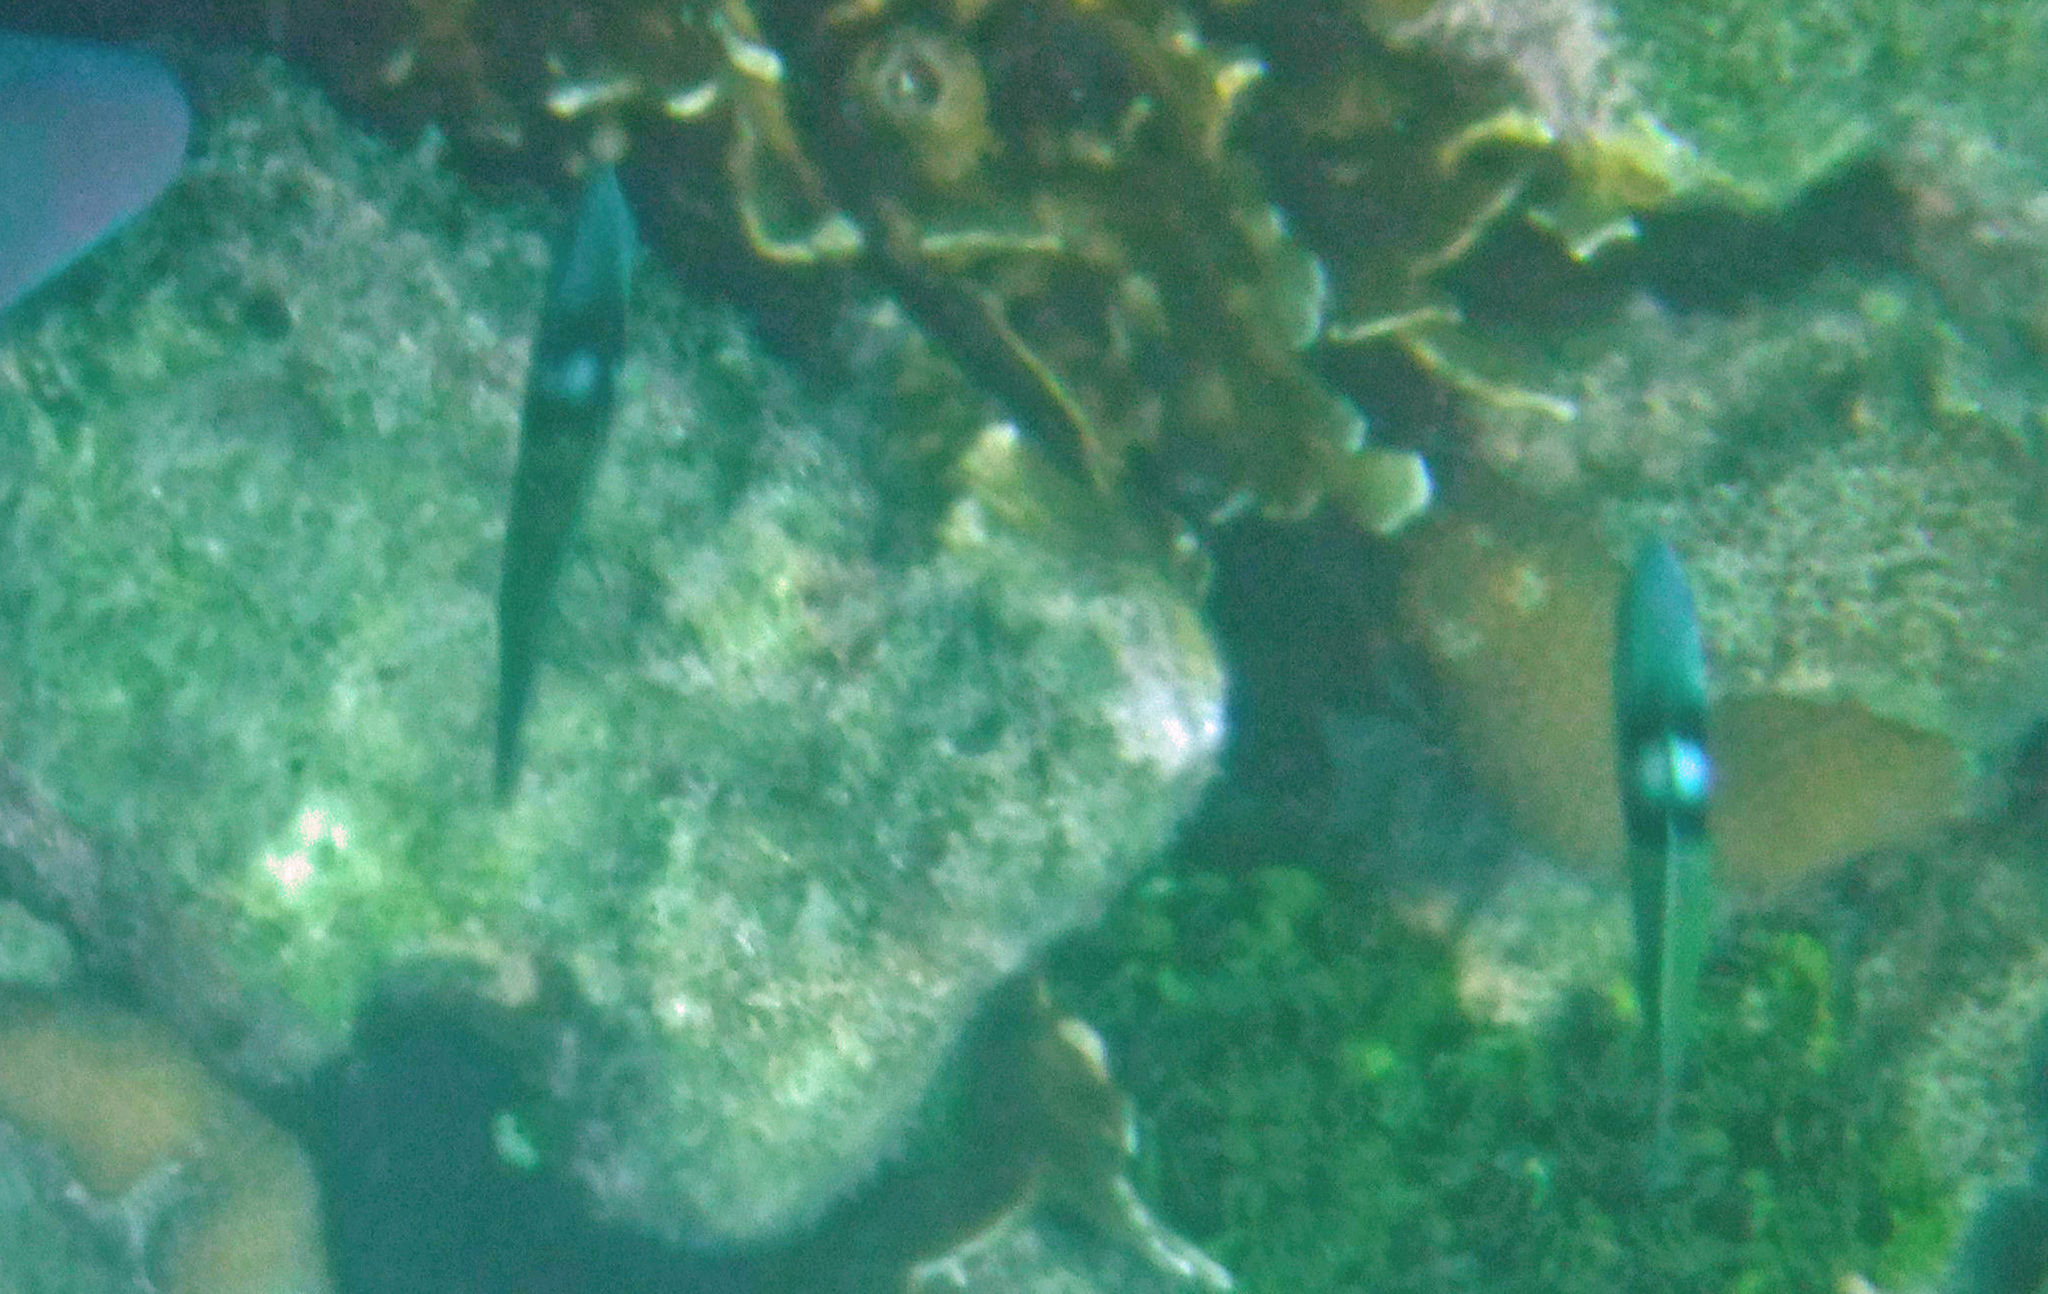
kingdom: Animalia
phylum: Chordata
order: Perciformes
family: Labridae
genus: Thalassoma
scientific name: Thalassoma bifasciatum
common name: Bluehead wrasse
